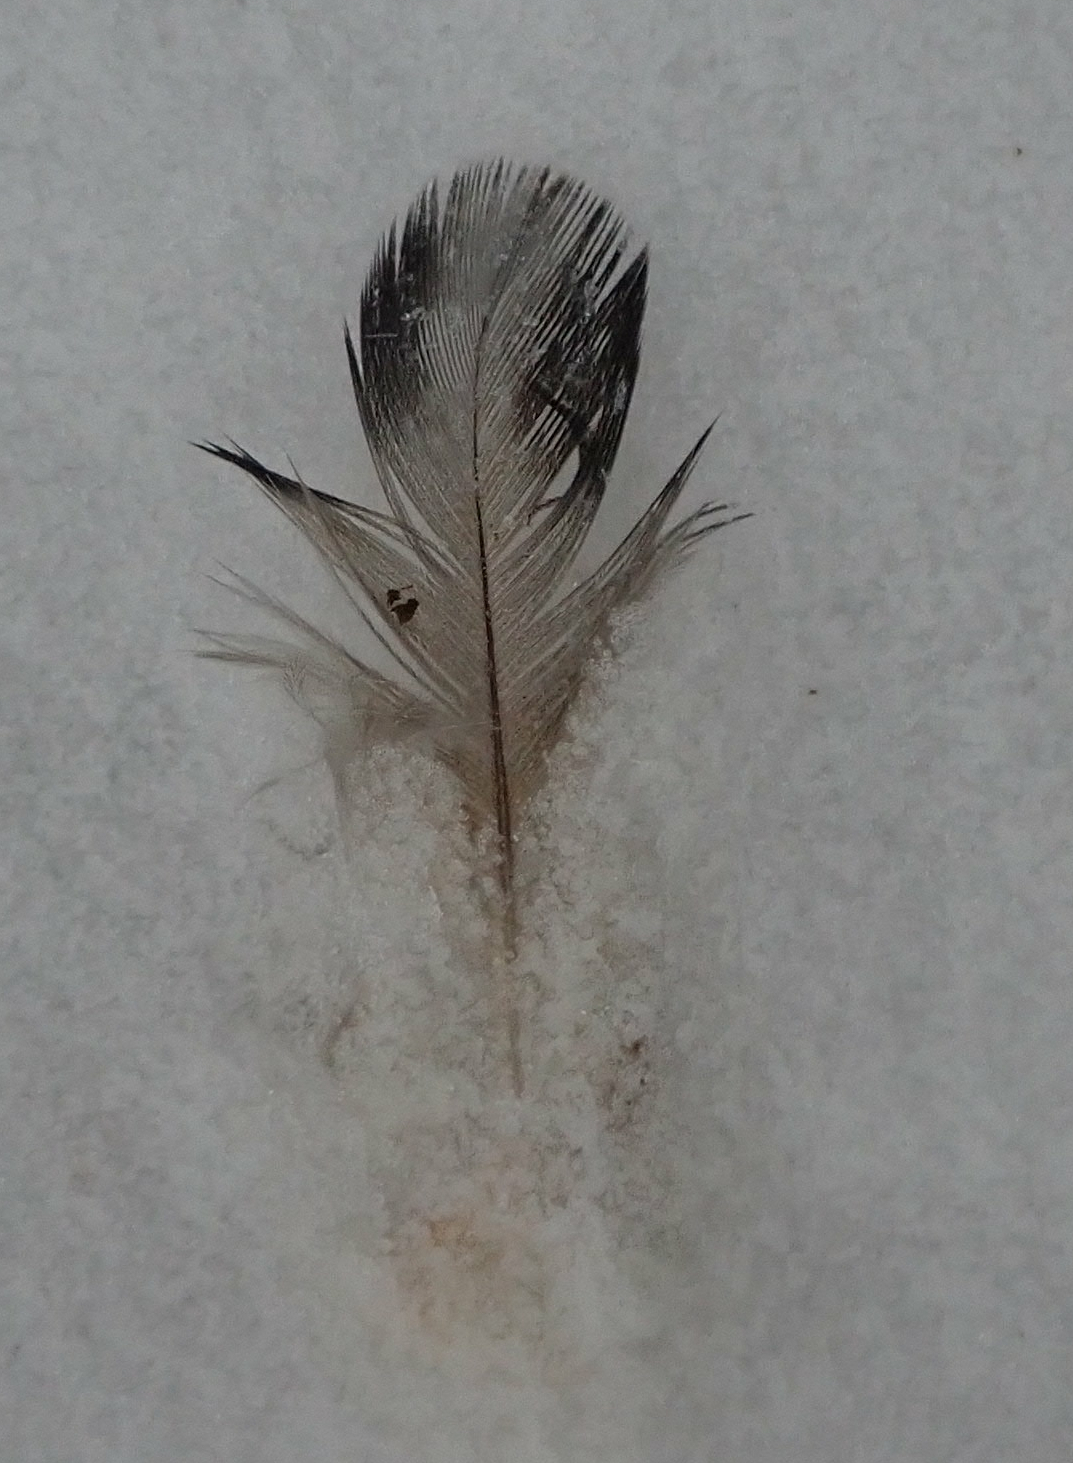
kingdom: Animalia
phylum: Chordata
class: Aves
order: Columbiformes
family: Columbidae
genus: Columba
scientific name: Columba livia
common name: Rock pigeon
